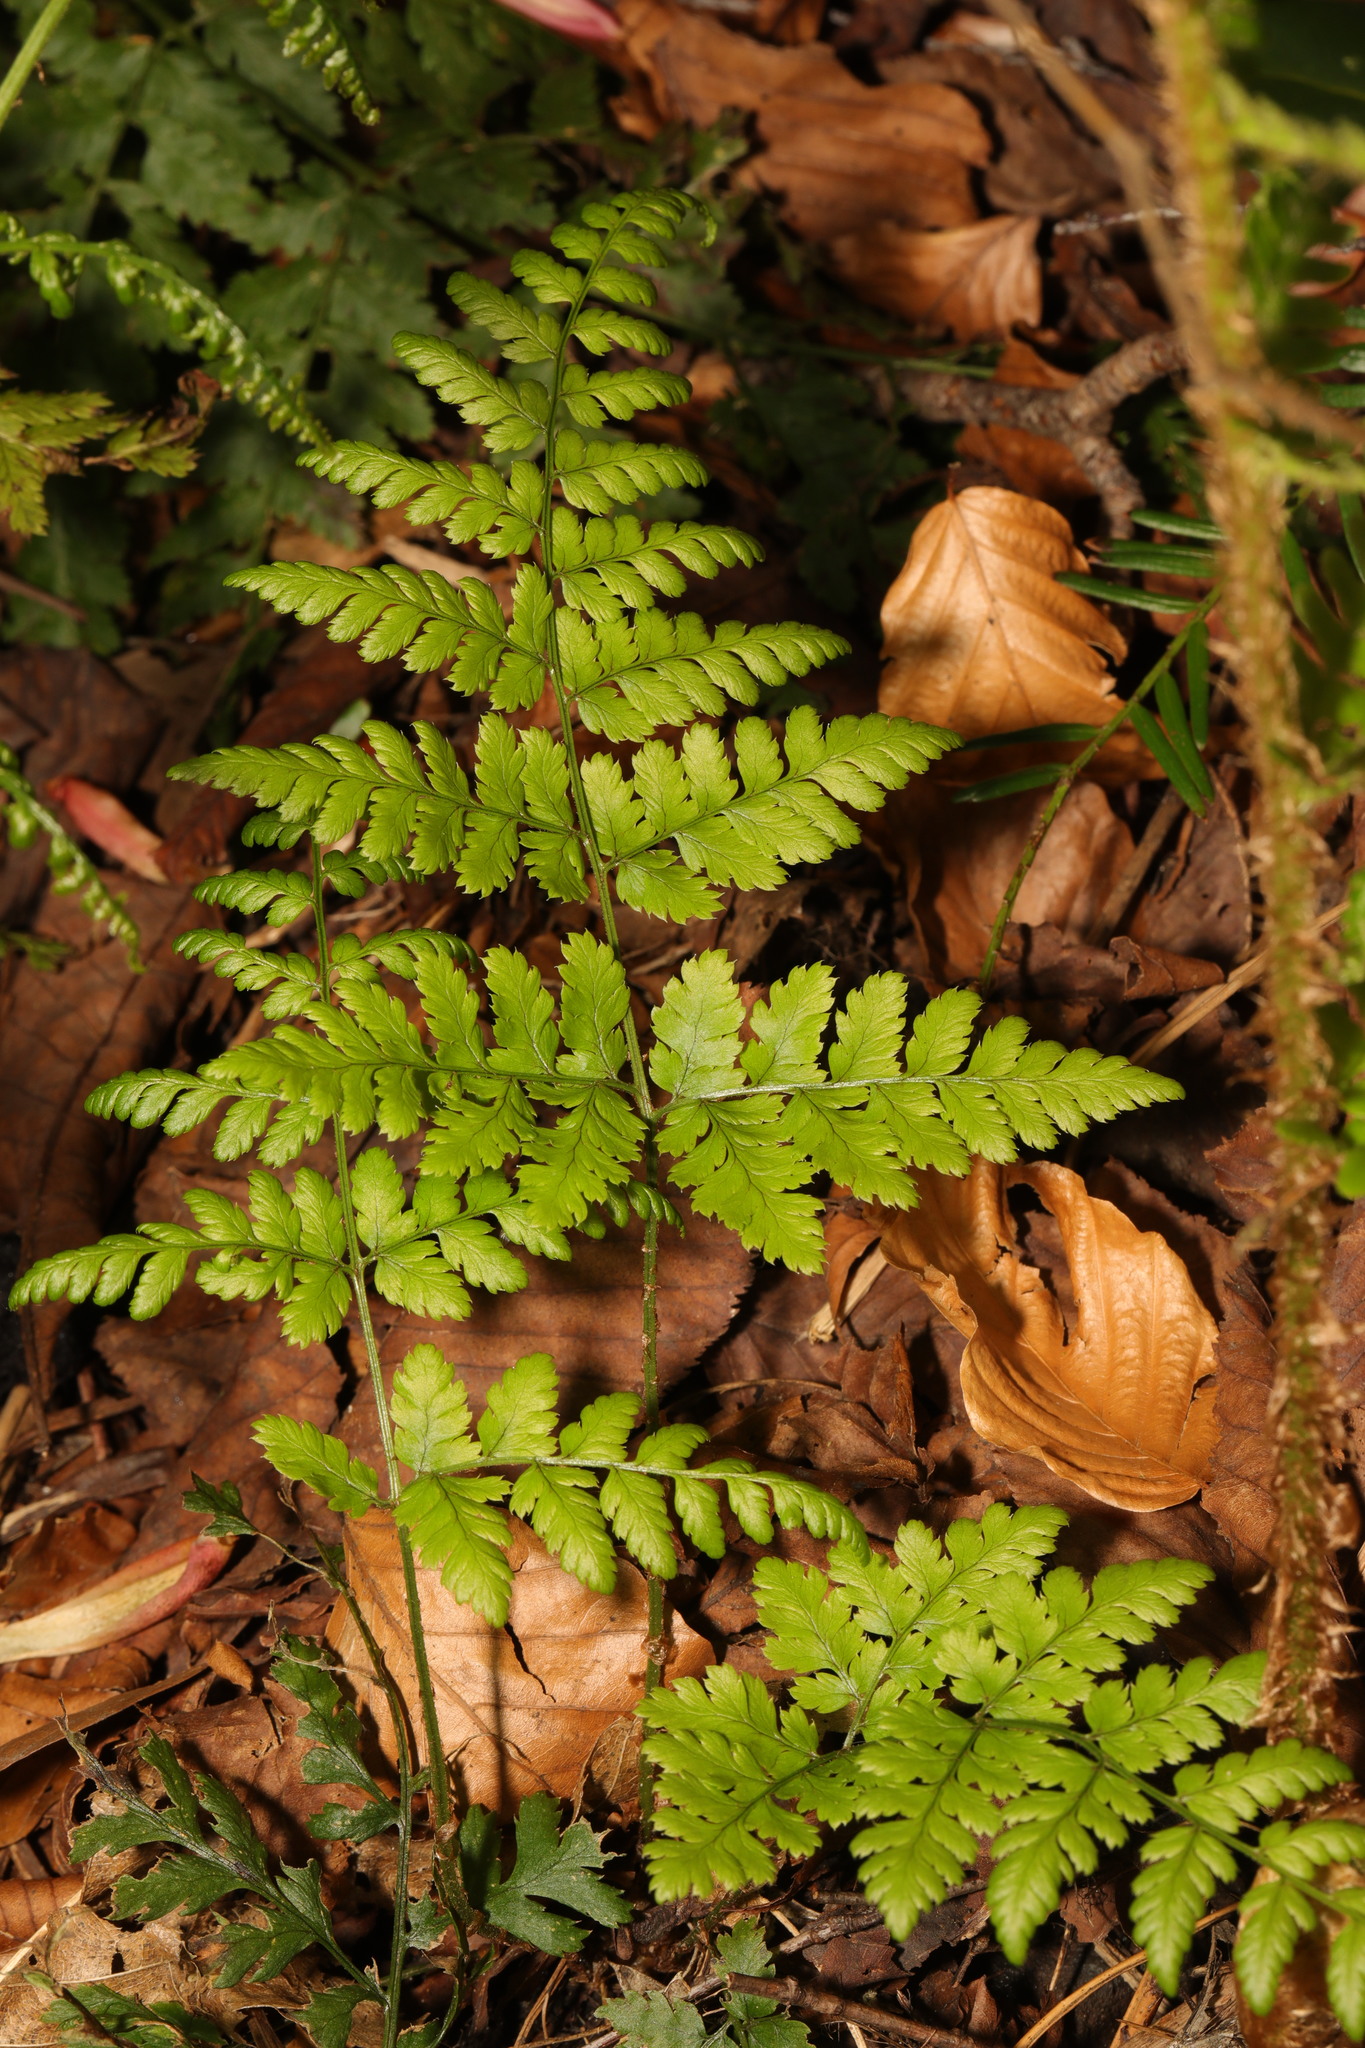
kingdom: Plantae
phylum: Tracheophyta
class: Polypodiopsida
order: Polypodiales
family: Dryopteridaceae
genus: Dryopteris
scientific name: Dryopteris dilatata
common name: Broad buckler-fern
